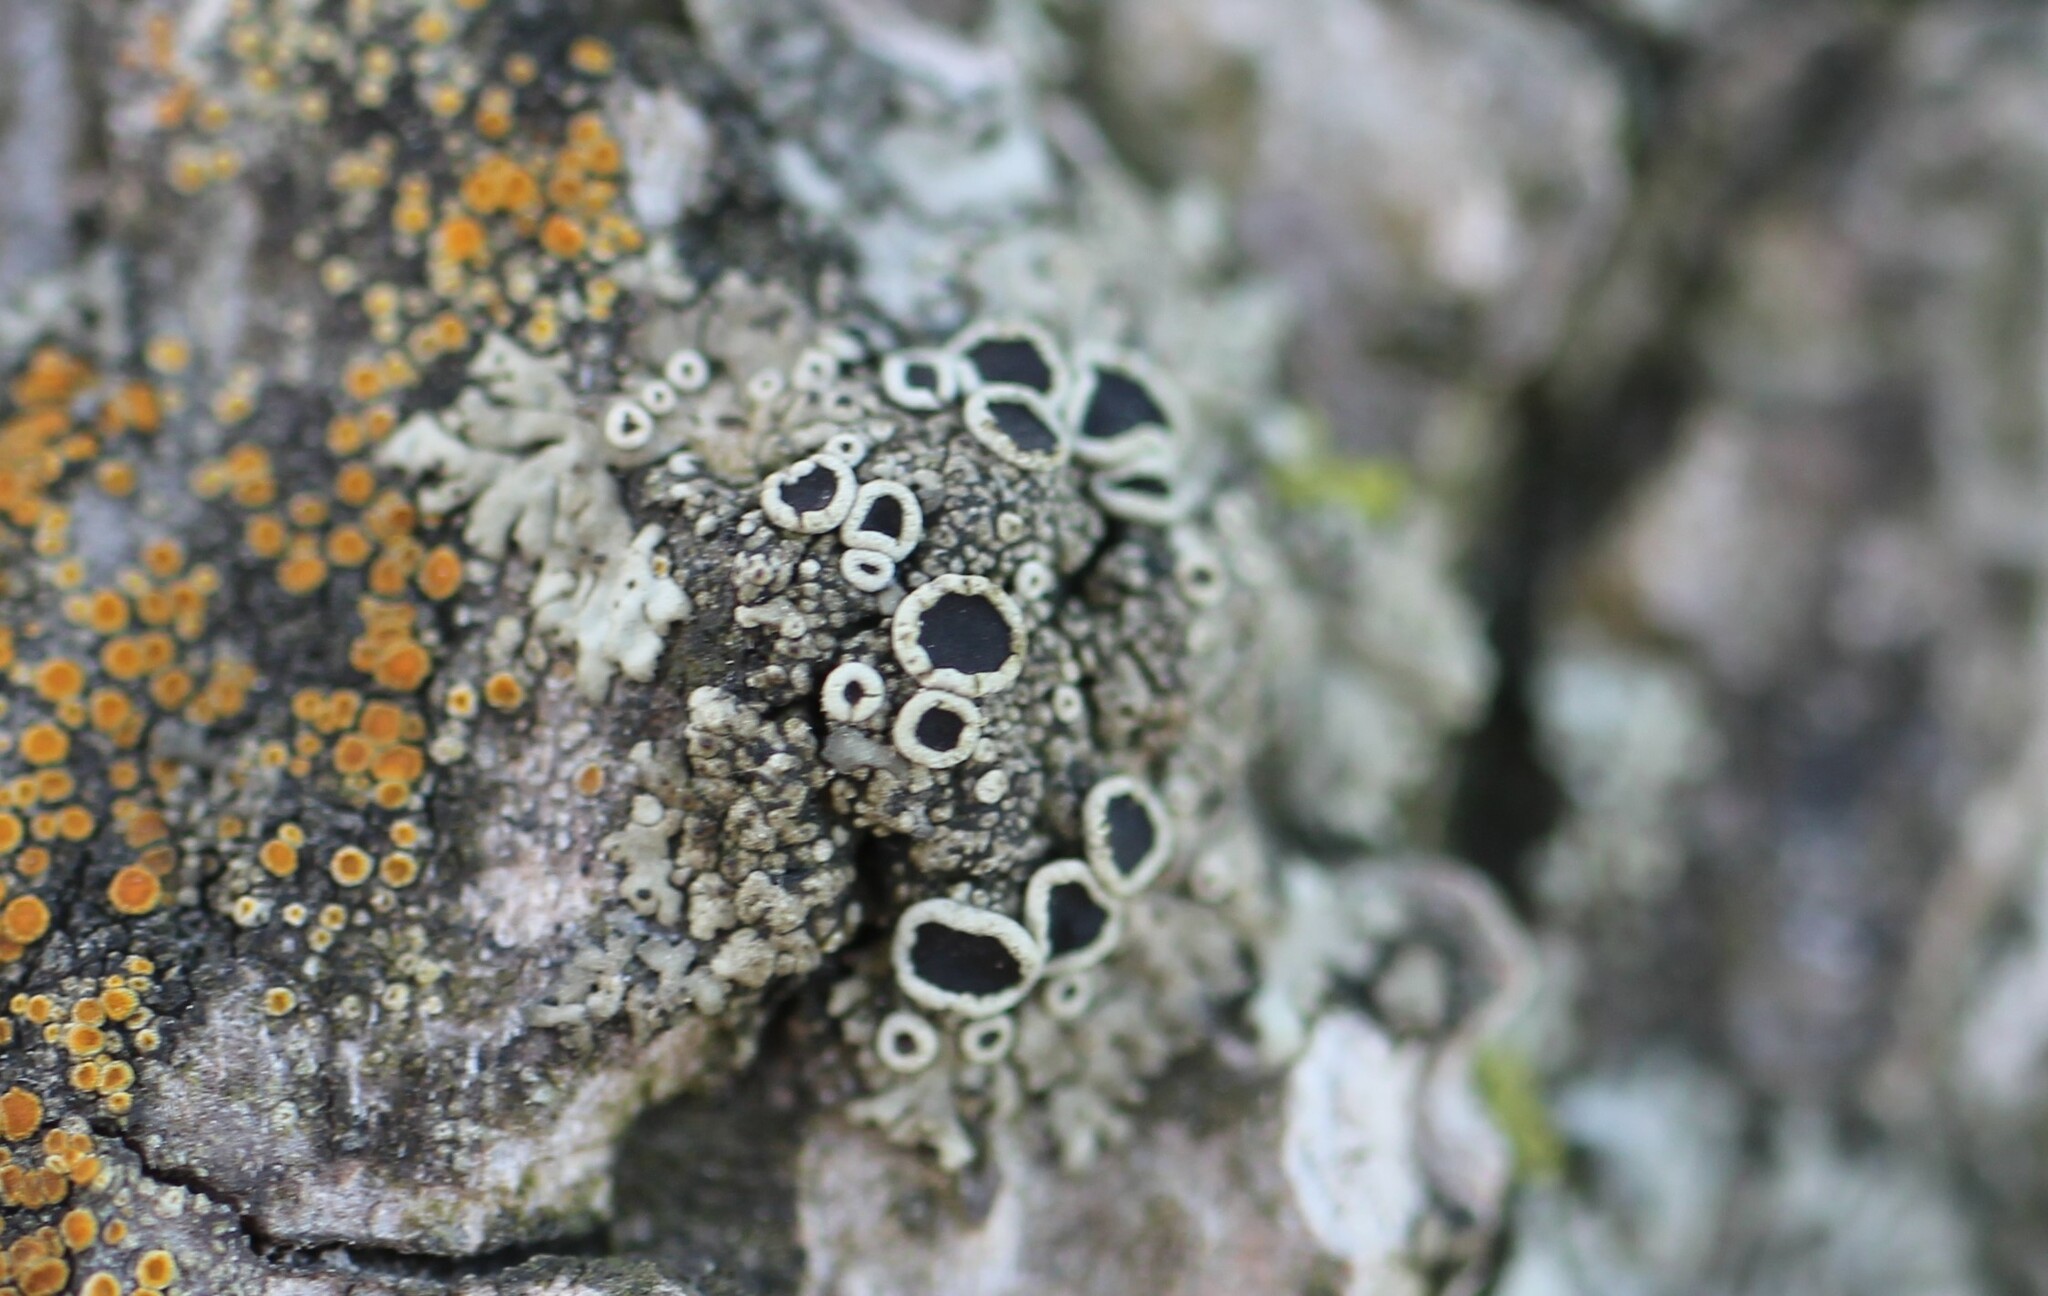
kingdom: Fungi
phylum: Ascomycota
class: Lecanoromycetes
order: Caliciales
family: Physciaceae
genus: Phaeophyscia
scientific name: Phaeophyscia ciliata
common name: Smooth shadow lichen
